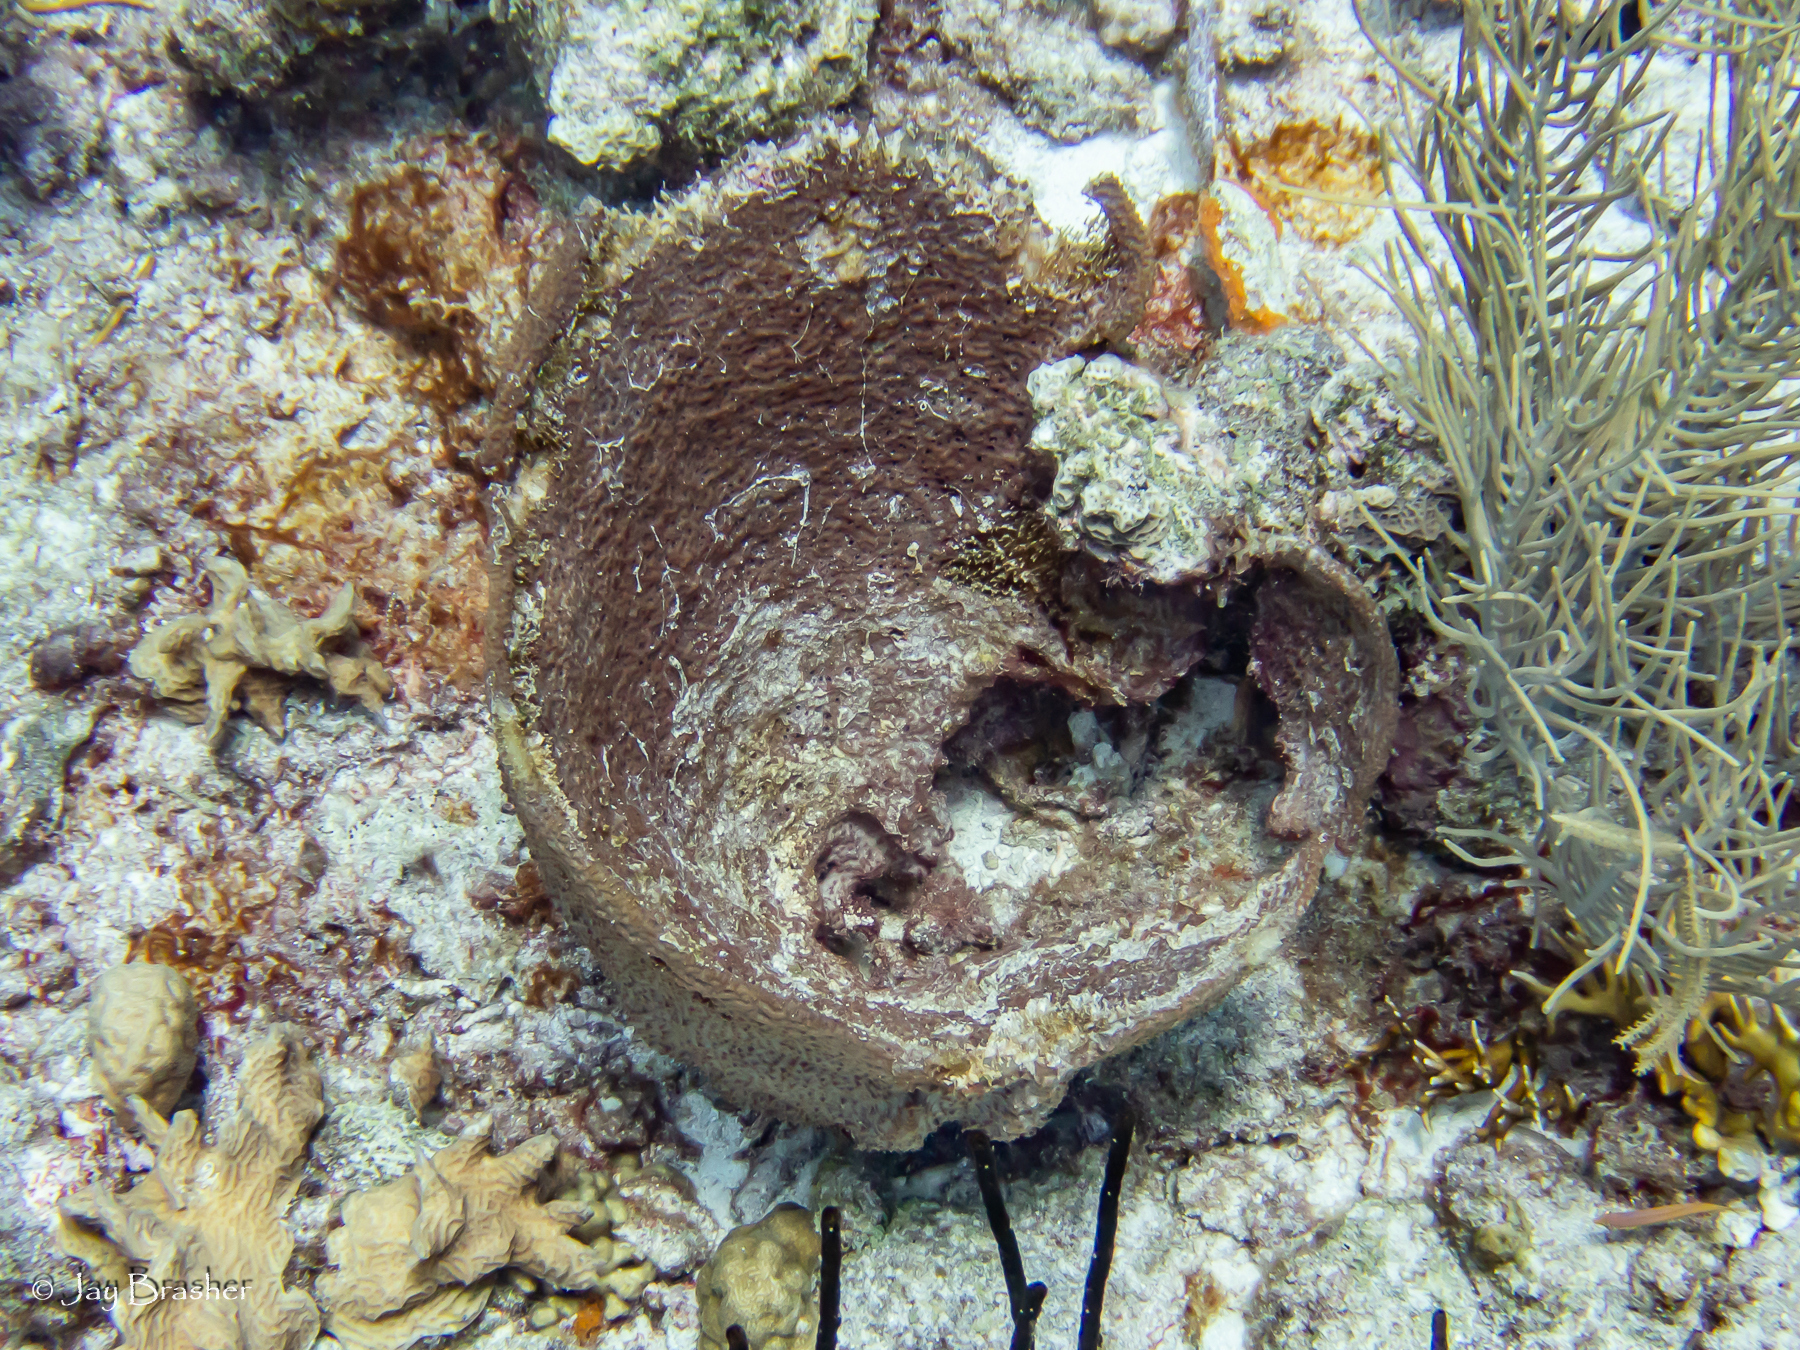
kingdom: Animalia
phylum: Porifera
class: Demospongiae
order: Dictyoceratida
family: Irciniidae
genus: Ircinia
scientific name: Ircinia campana
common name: Vase sponge
